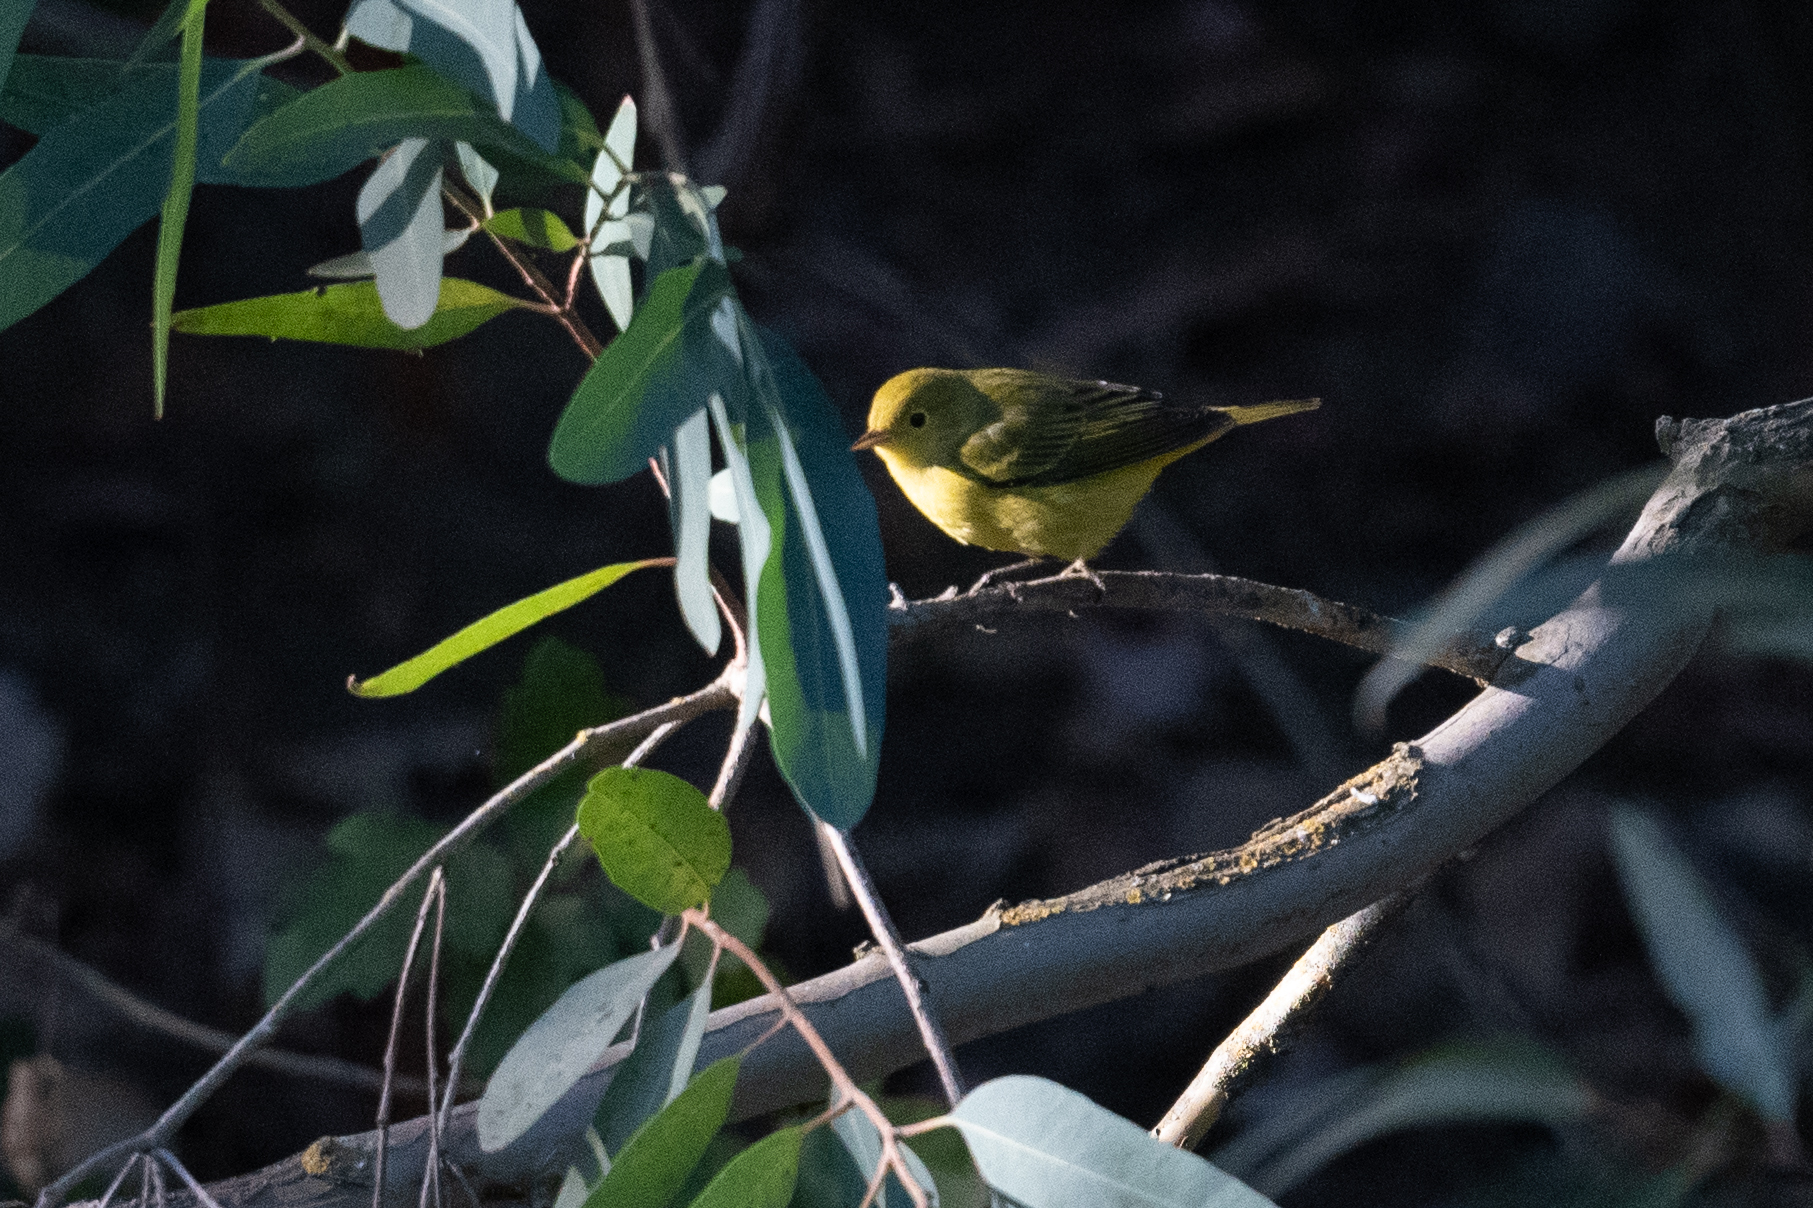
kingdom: Animalia
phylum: Chordata
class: Aves
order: Passeriformes
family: Parulidae
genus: Setophaga
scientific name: Setophaga petechia
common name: Yellow warbler
